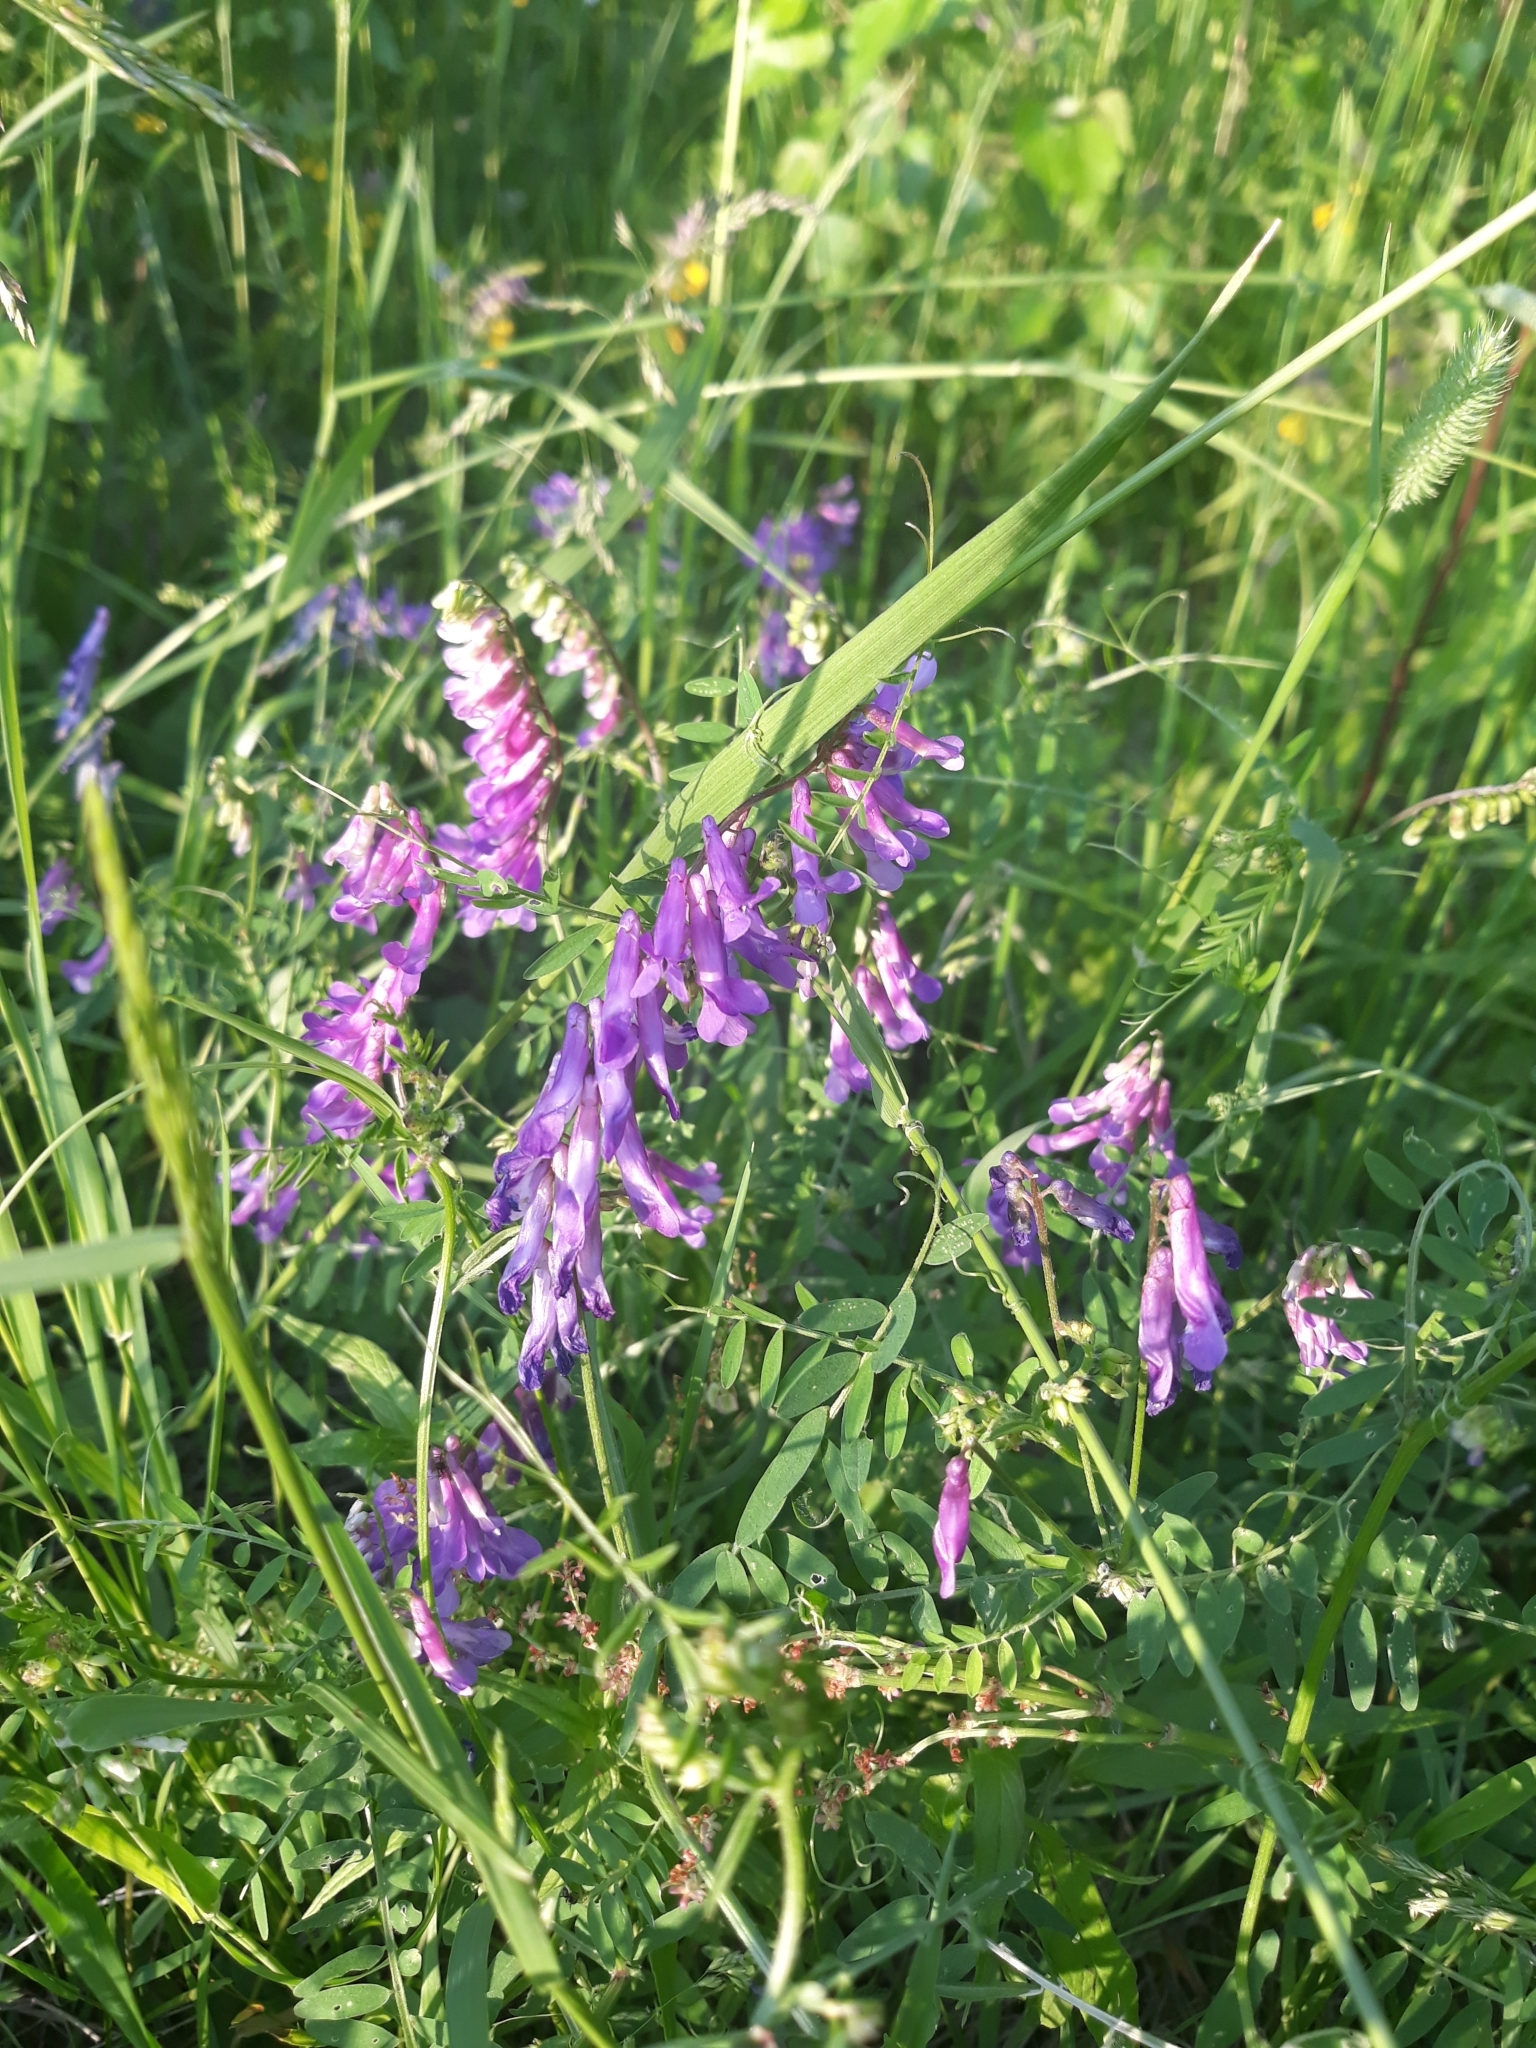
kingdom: Plantae
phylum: Tracheophyta
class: Magnoliopsida
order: Fabales
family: Fabaceae
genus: Vicia
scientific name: Vicia cracca
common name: Bird vetch
